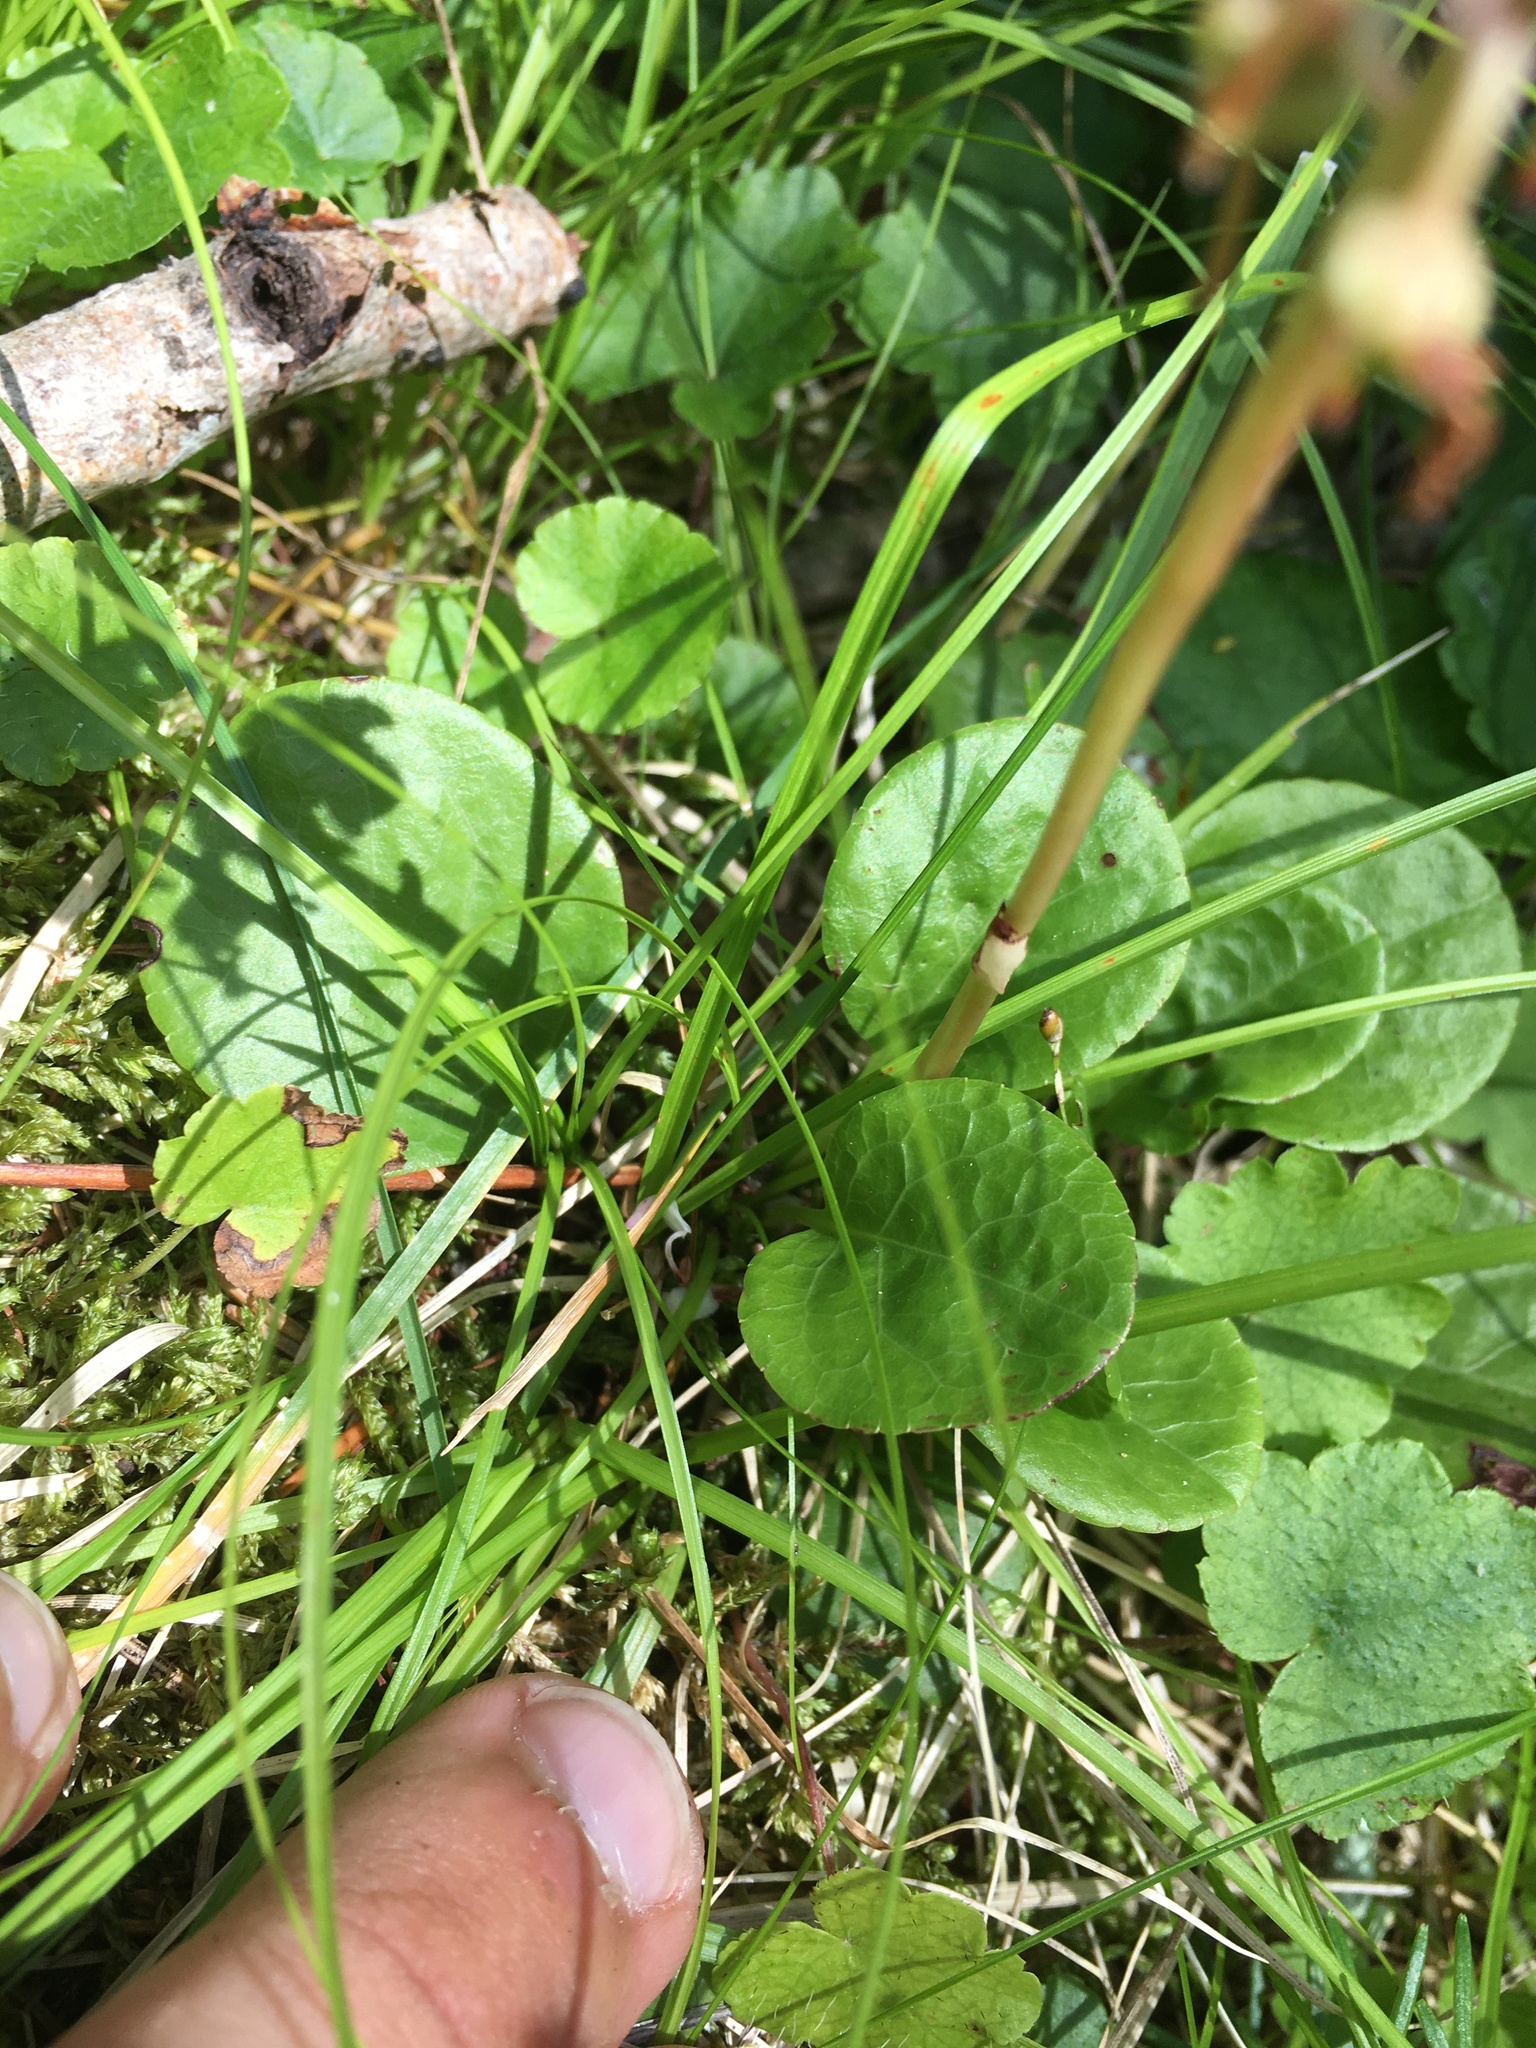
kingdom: Plantae
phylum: Tracheophyta
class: Magnoliopsida
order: Ericales
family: Ericaceae
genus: Pyrola
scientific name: Pyrola asarifolia
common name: Bog wintergreen
